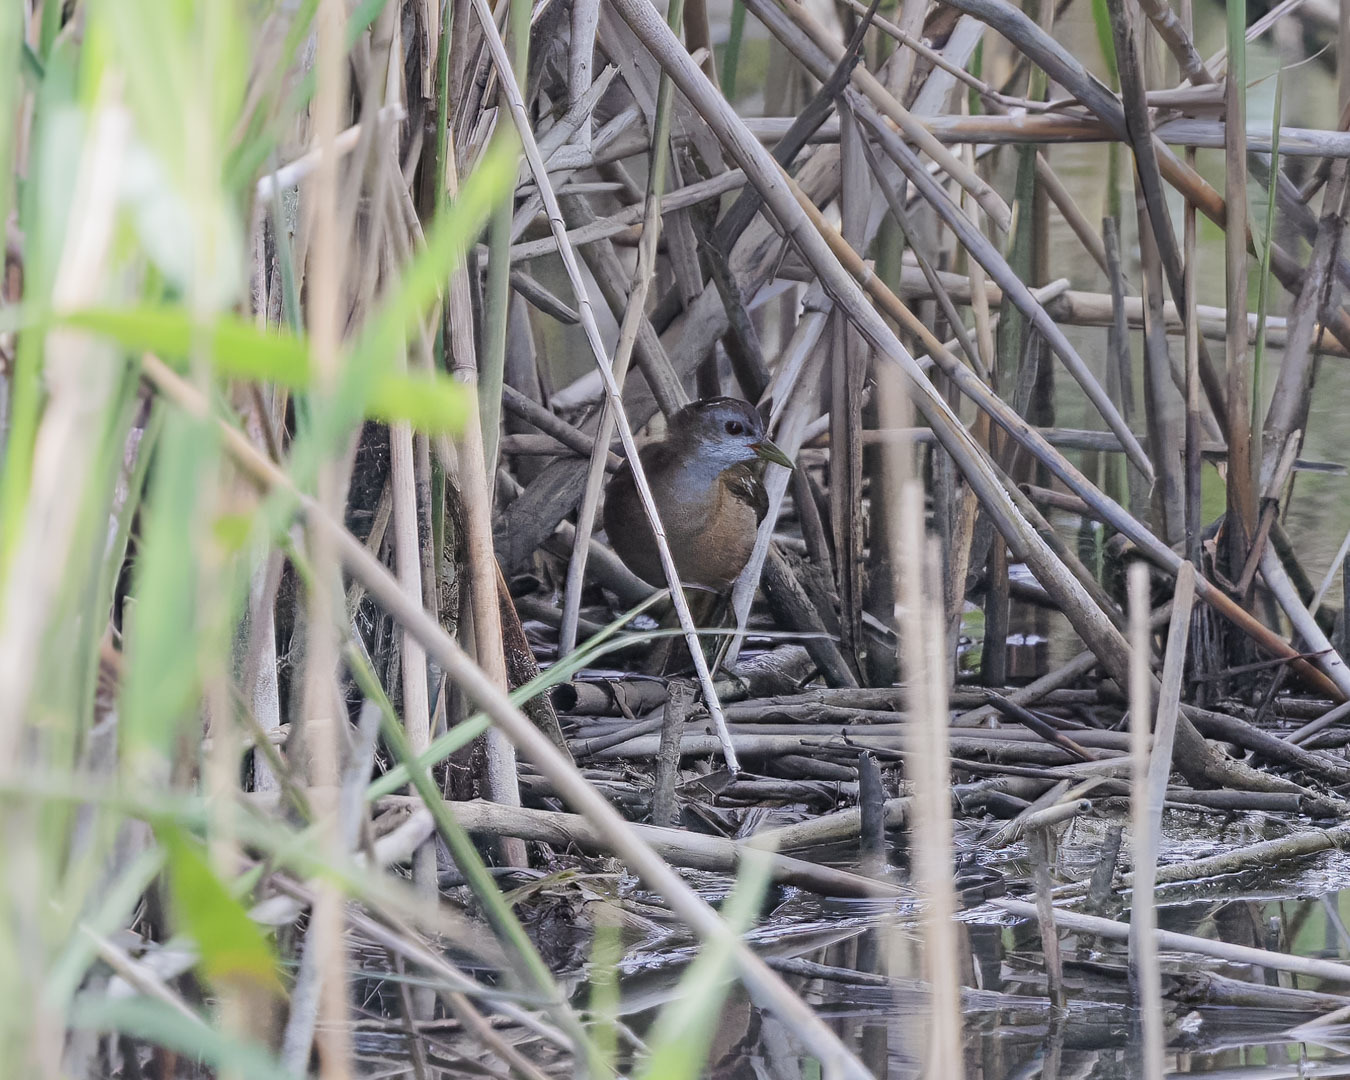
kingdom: Animalia
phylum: Chordata
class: Aves
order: Gruiformes
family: Rallidae
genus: Porzana
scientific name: Porzana parva
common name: Little crake
